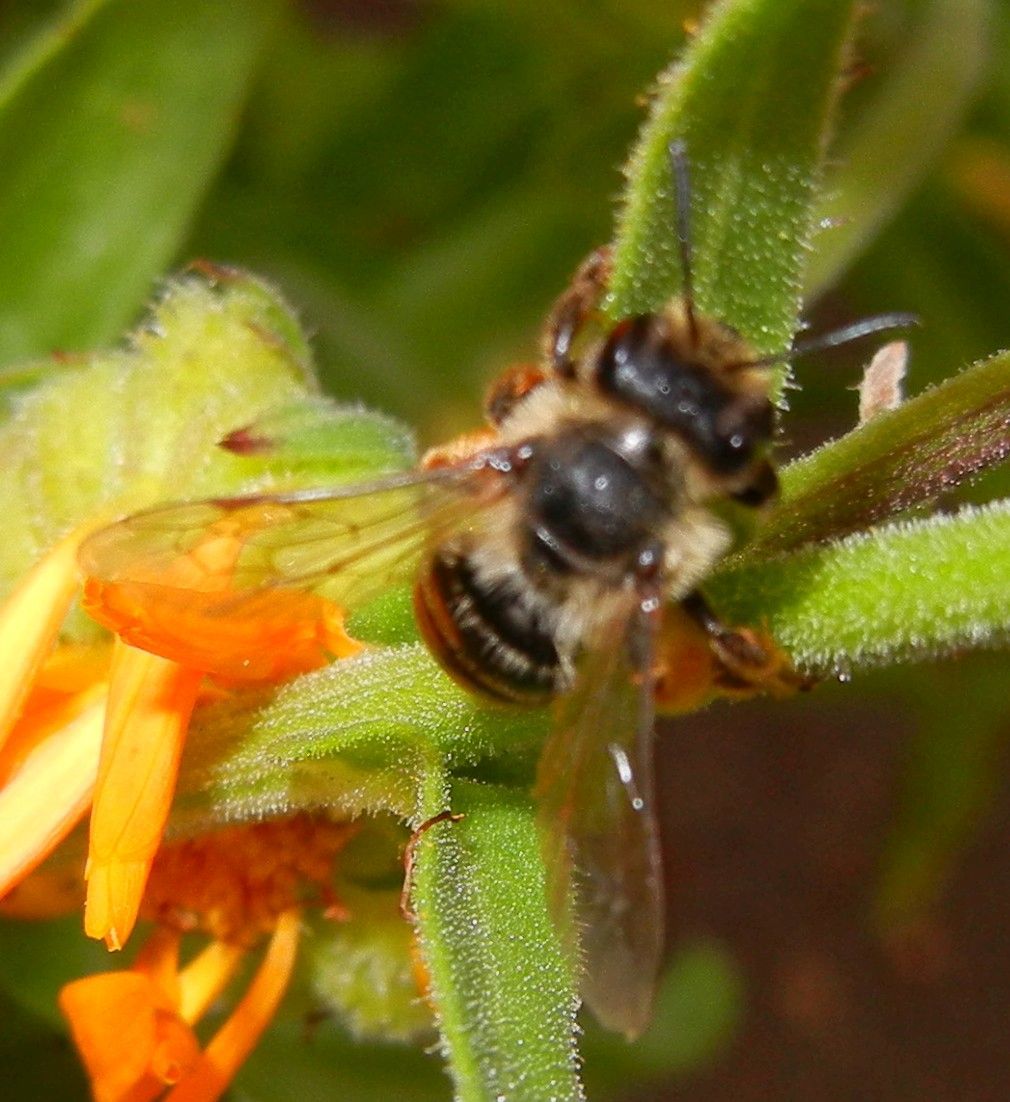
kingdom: Animalia
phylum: Arthropoda
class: Insecta
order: Hymenoptera
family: Andrenidae
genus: Andrena
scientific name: Andrena flavipes
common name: Yellow-legged mining bee
